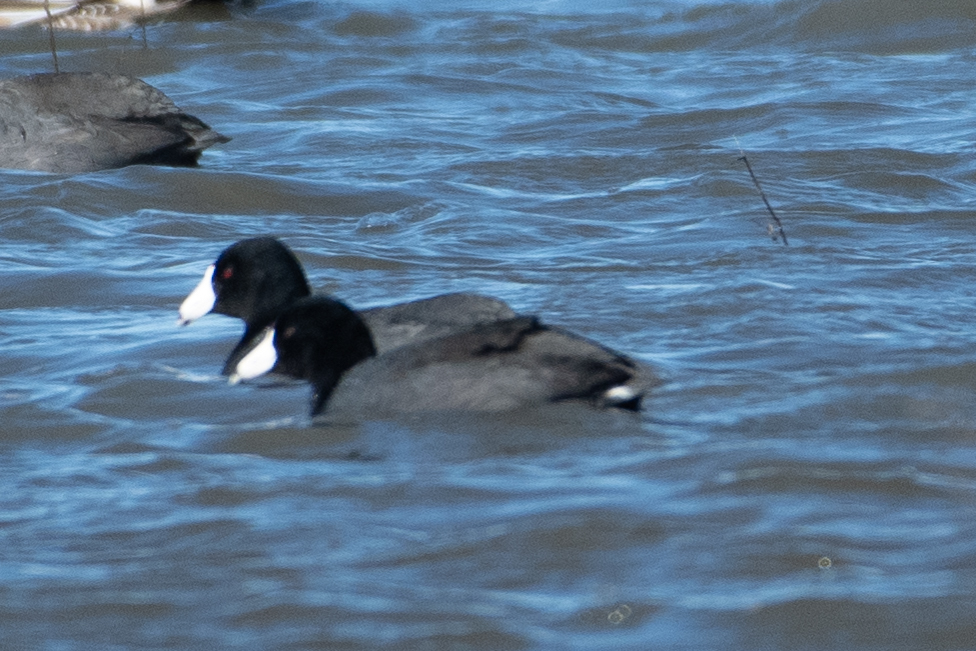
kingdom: Animalia
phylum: Chordata
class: Aves
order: Gruiformes
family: Rallidae
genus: Fulica
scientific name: Fulica americana
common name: American coot
